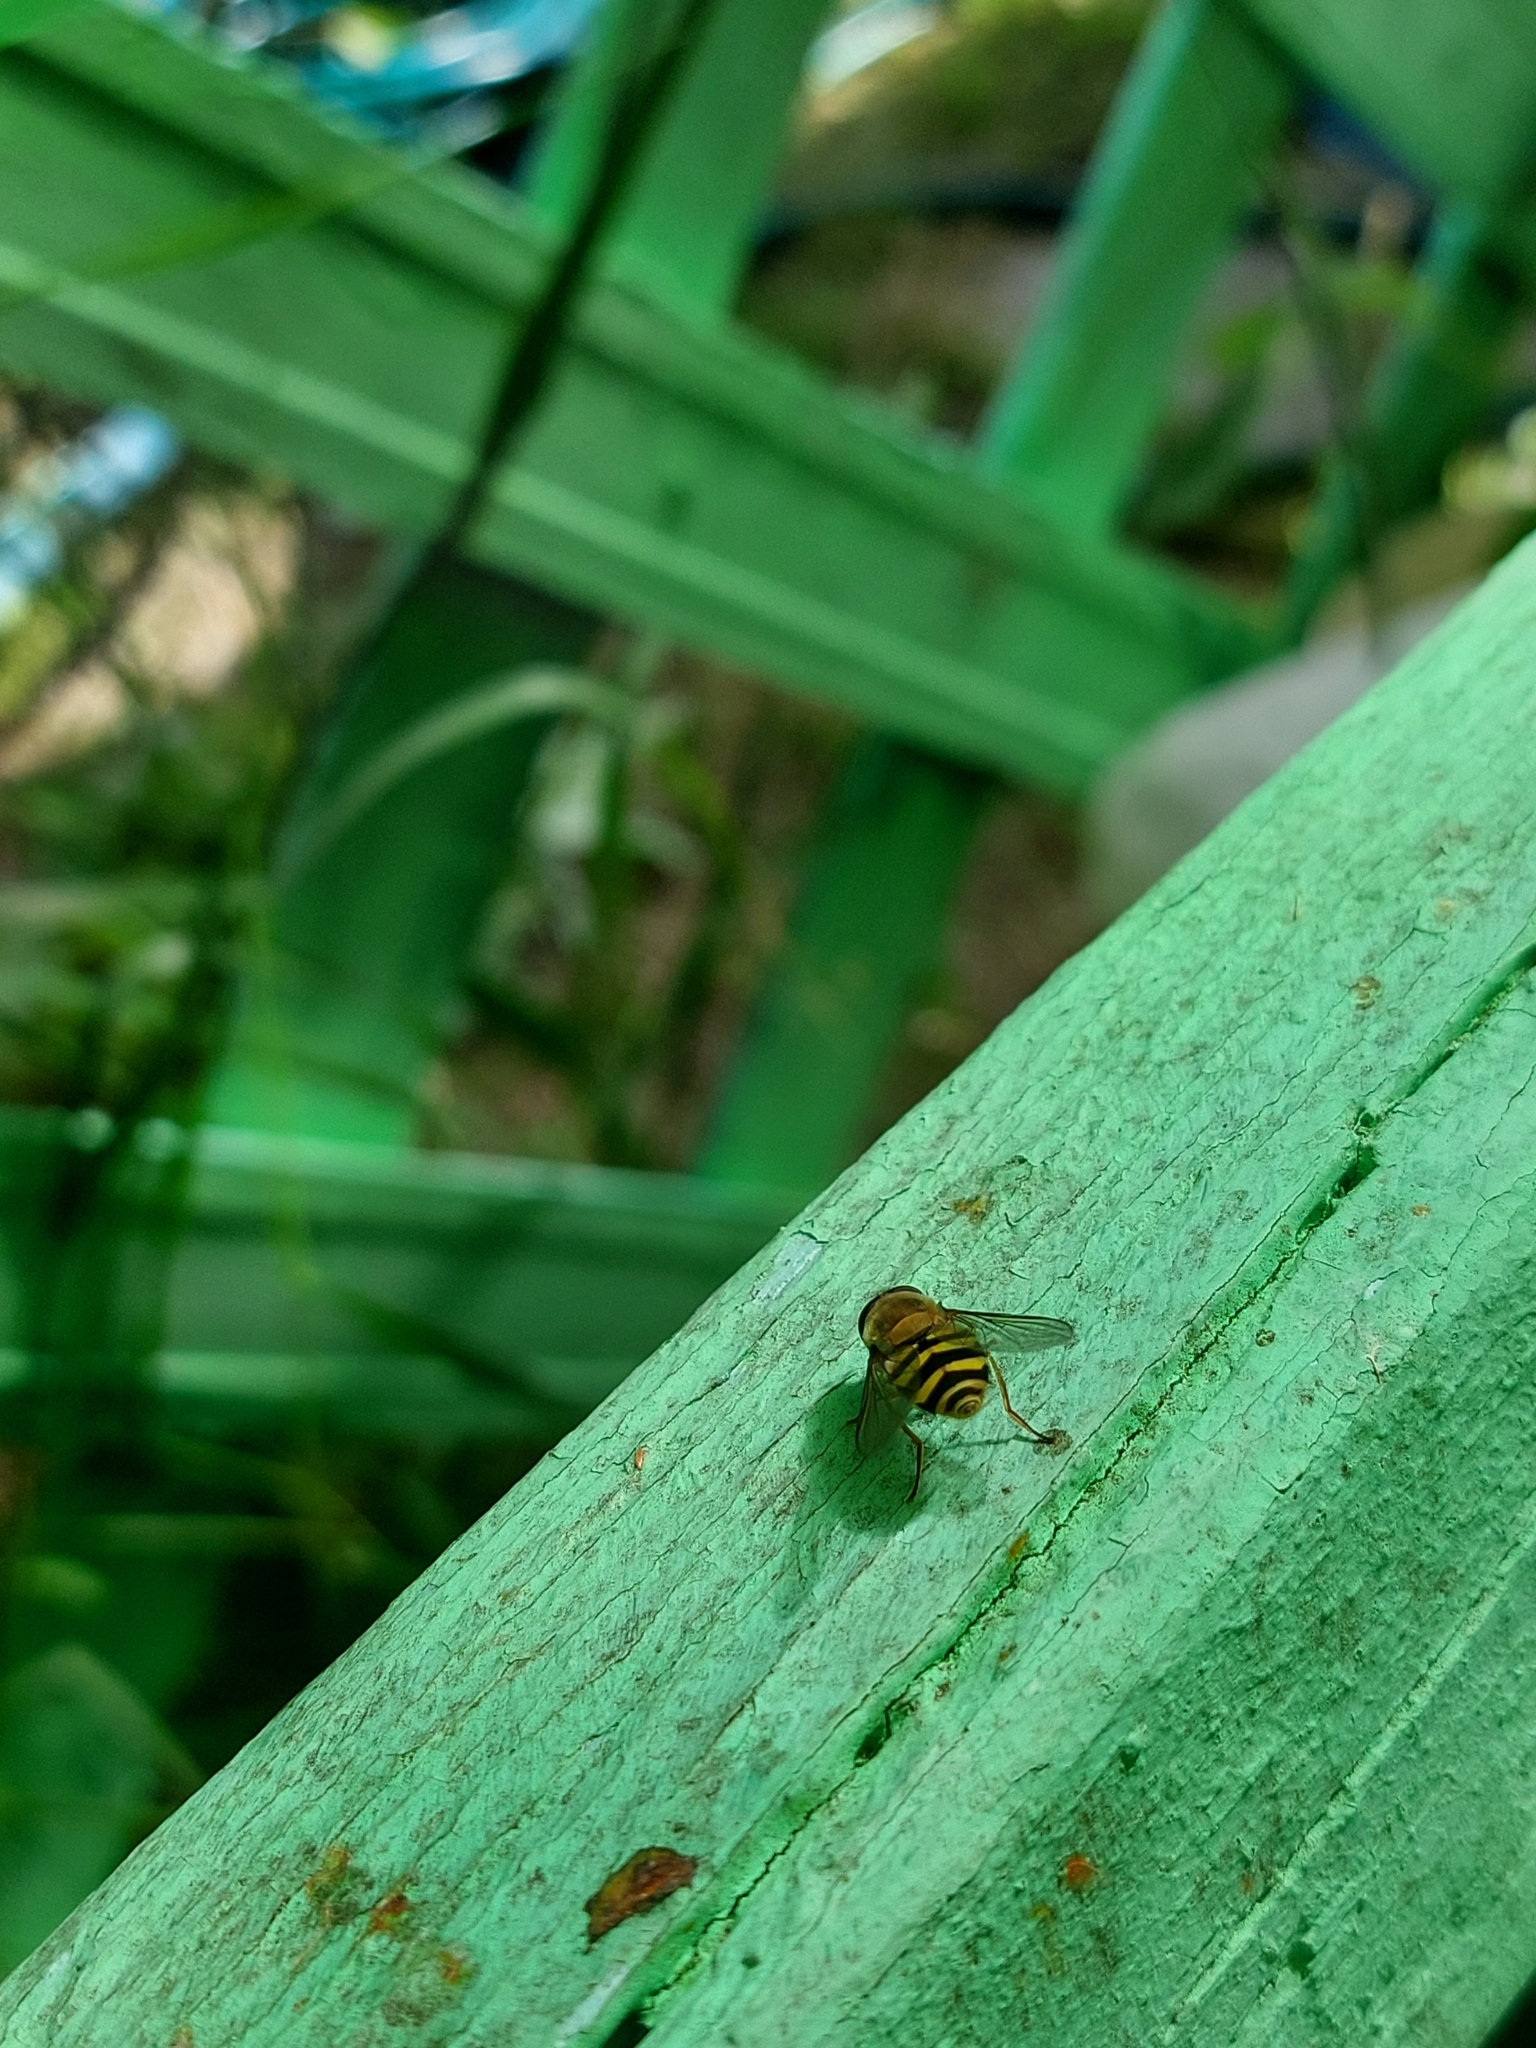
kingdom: Animalia
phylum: Arthropoda
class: Insecta
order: Diptera
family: Syrphidae
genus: Syrphus
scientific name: Syrphus
